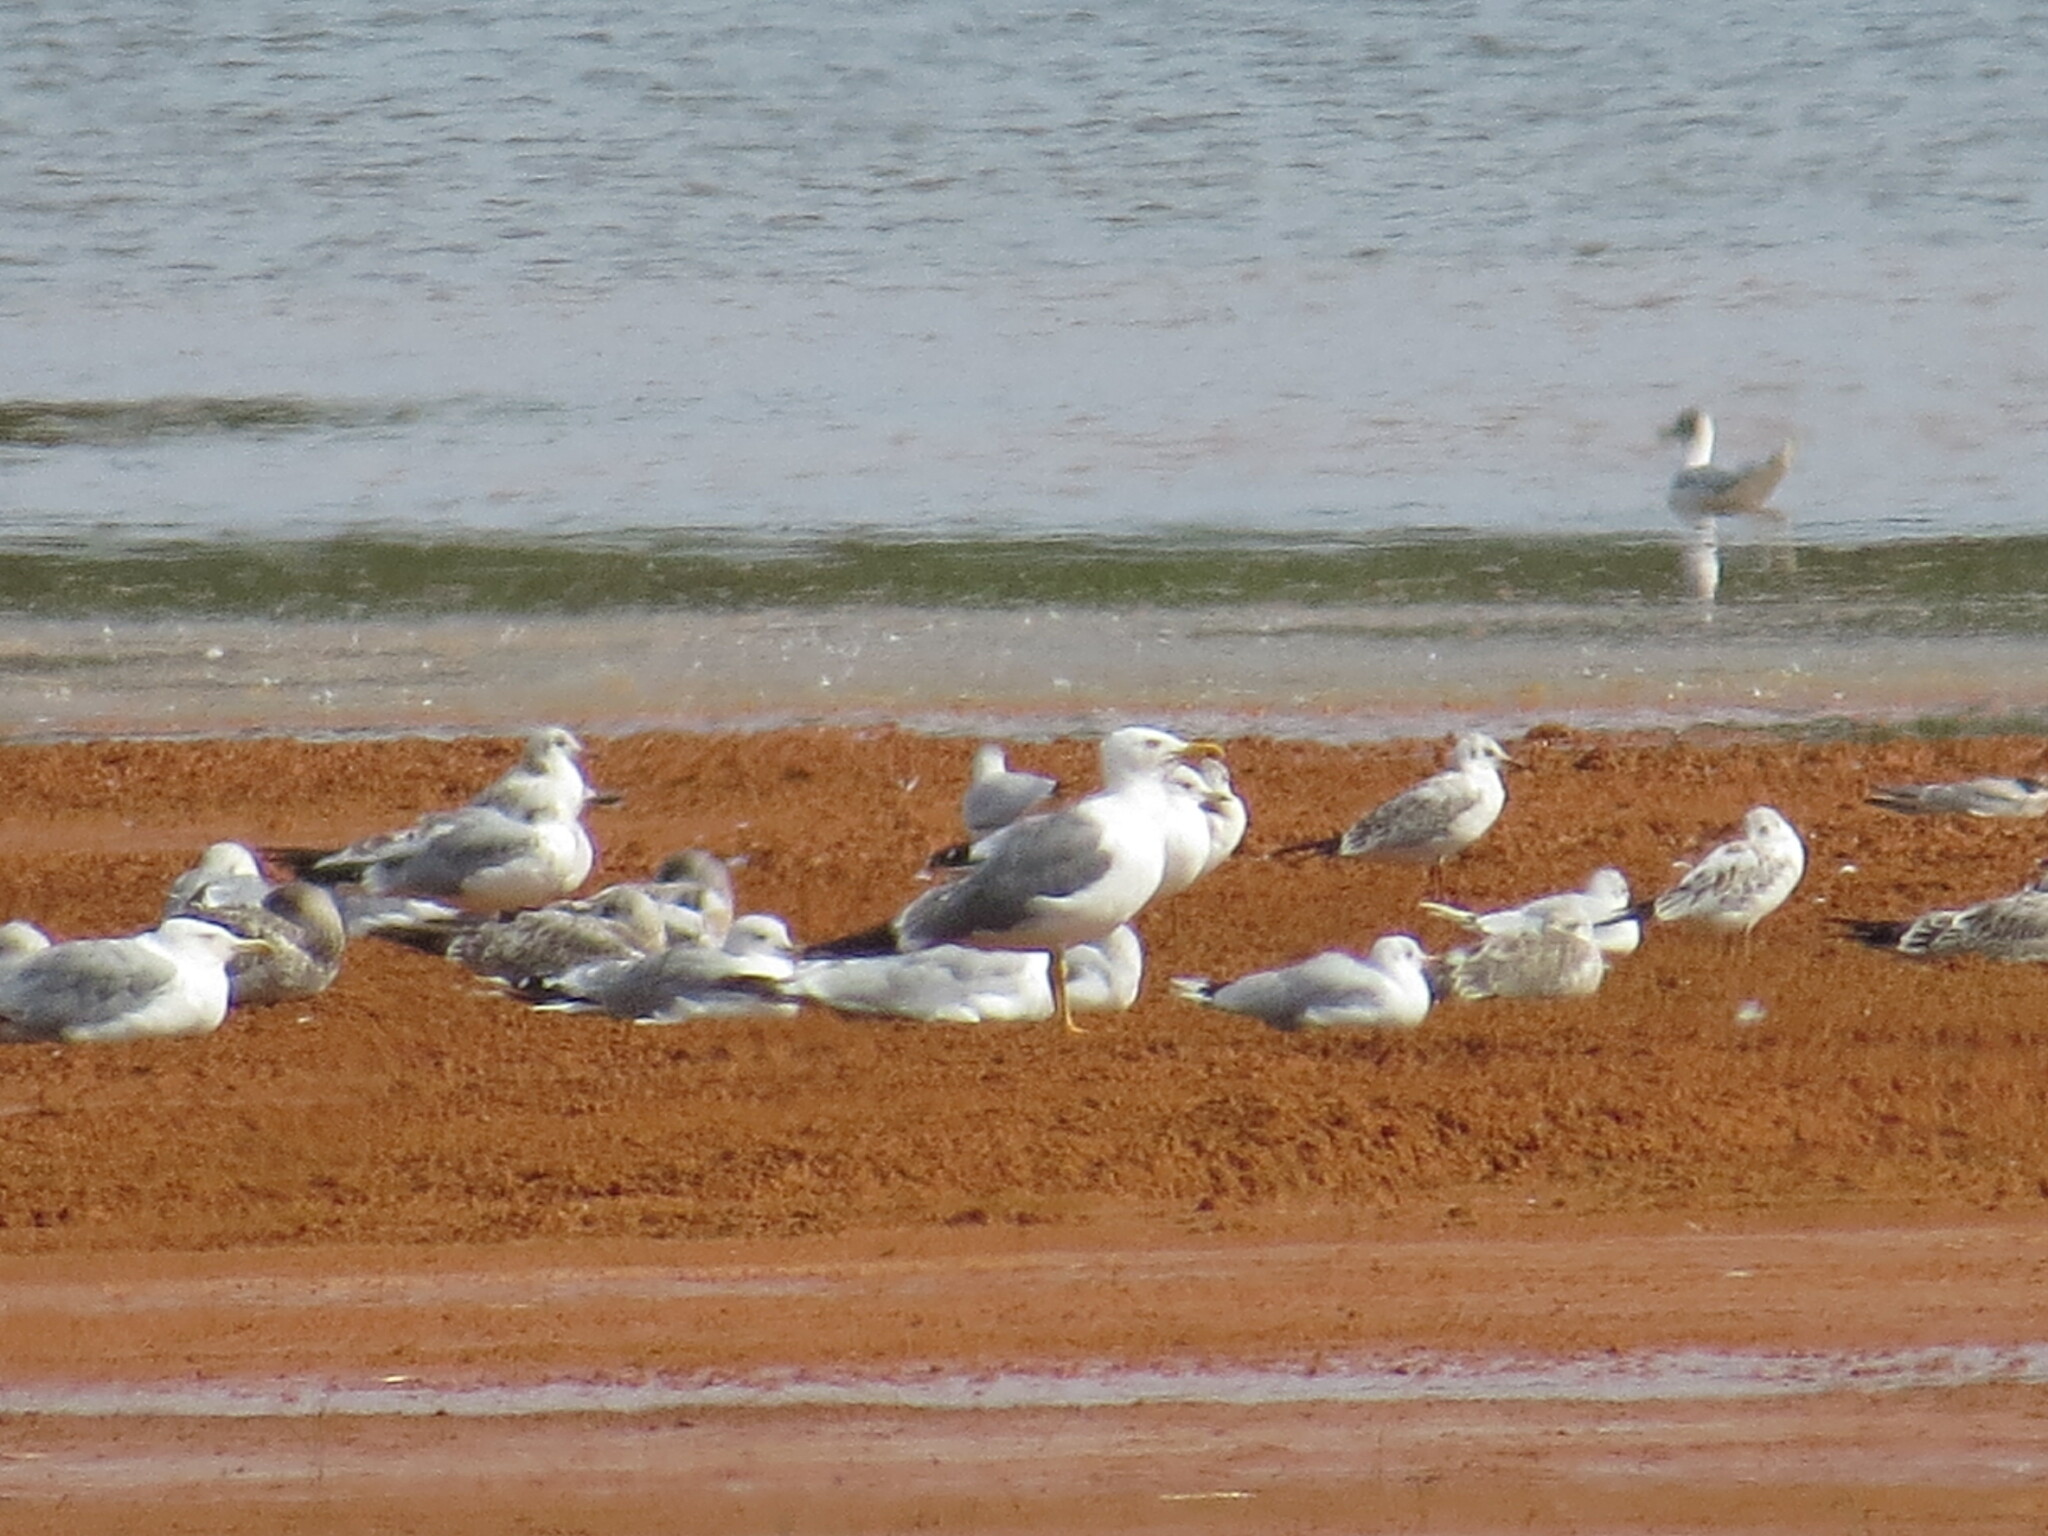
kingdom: Animalia
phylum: Chordata
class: Aves
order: Charadriiformes
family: Laridae
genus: Larus
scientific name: Larus fuscus
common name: Lesser black-backed gull
